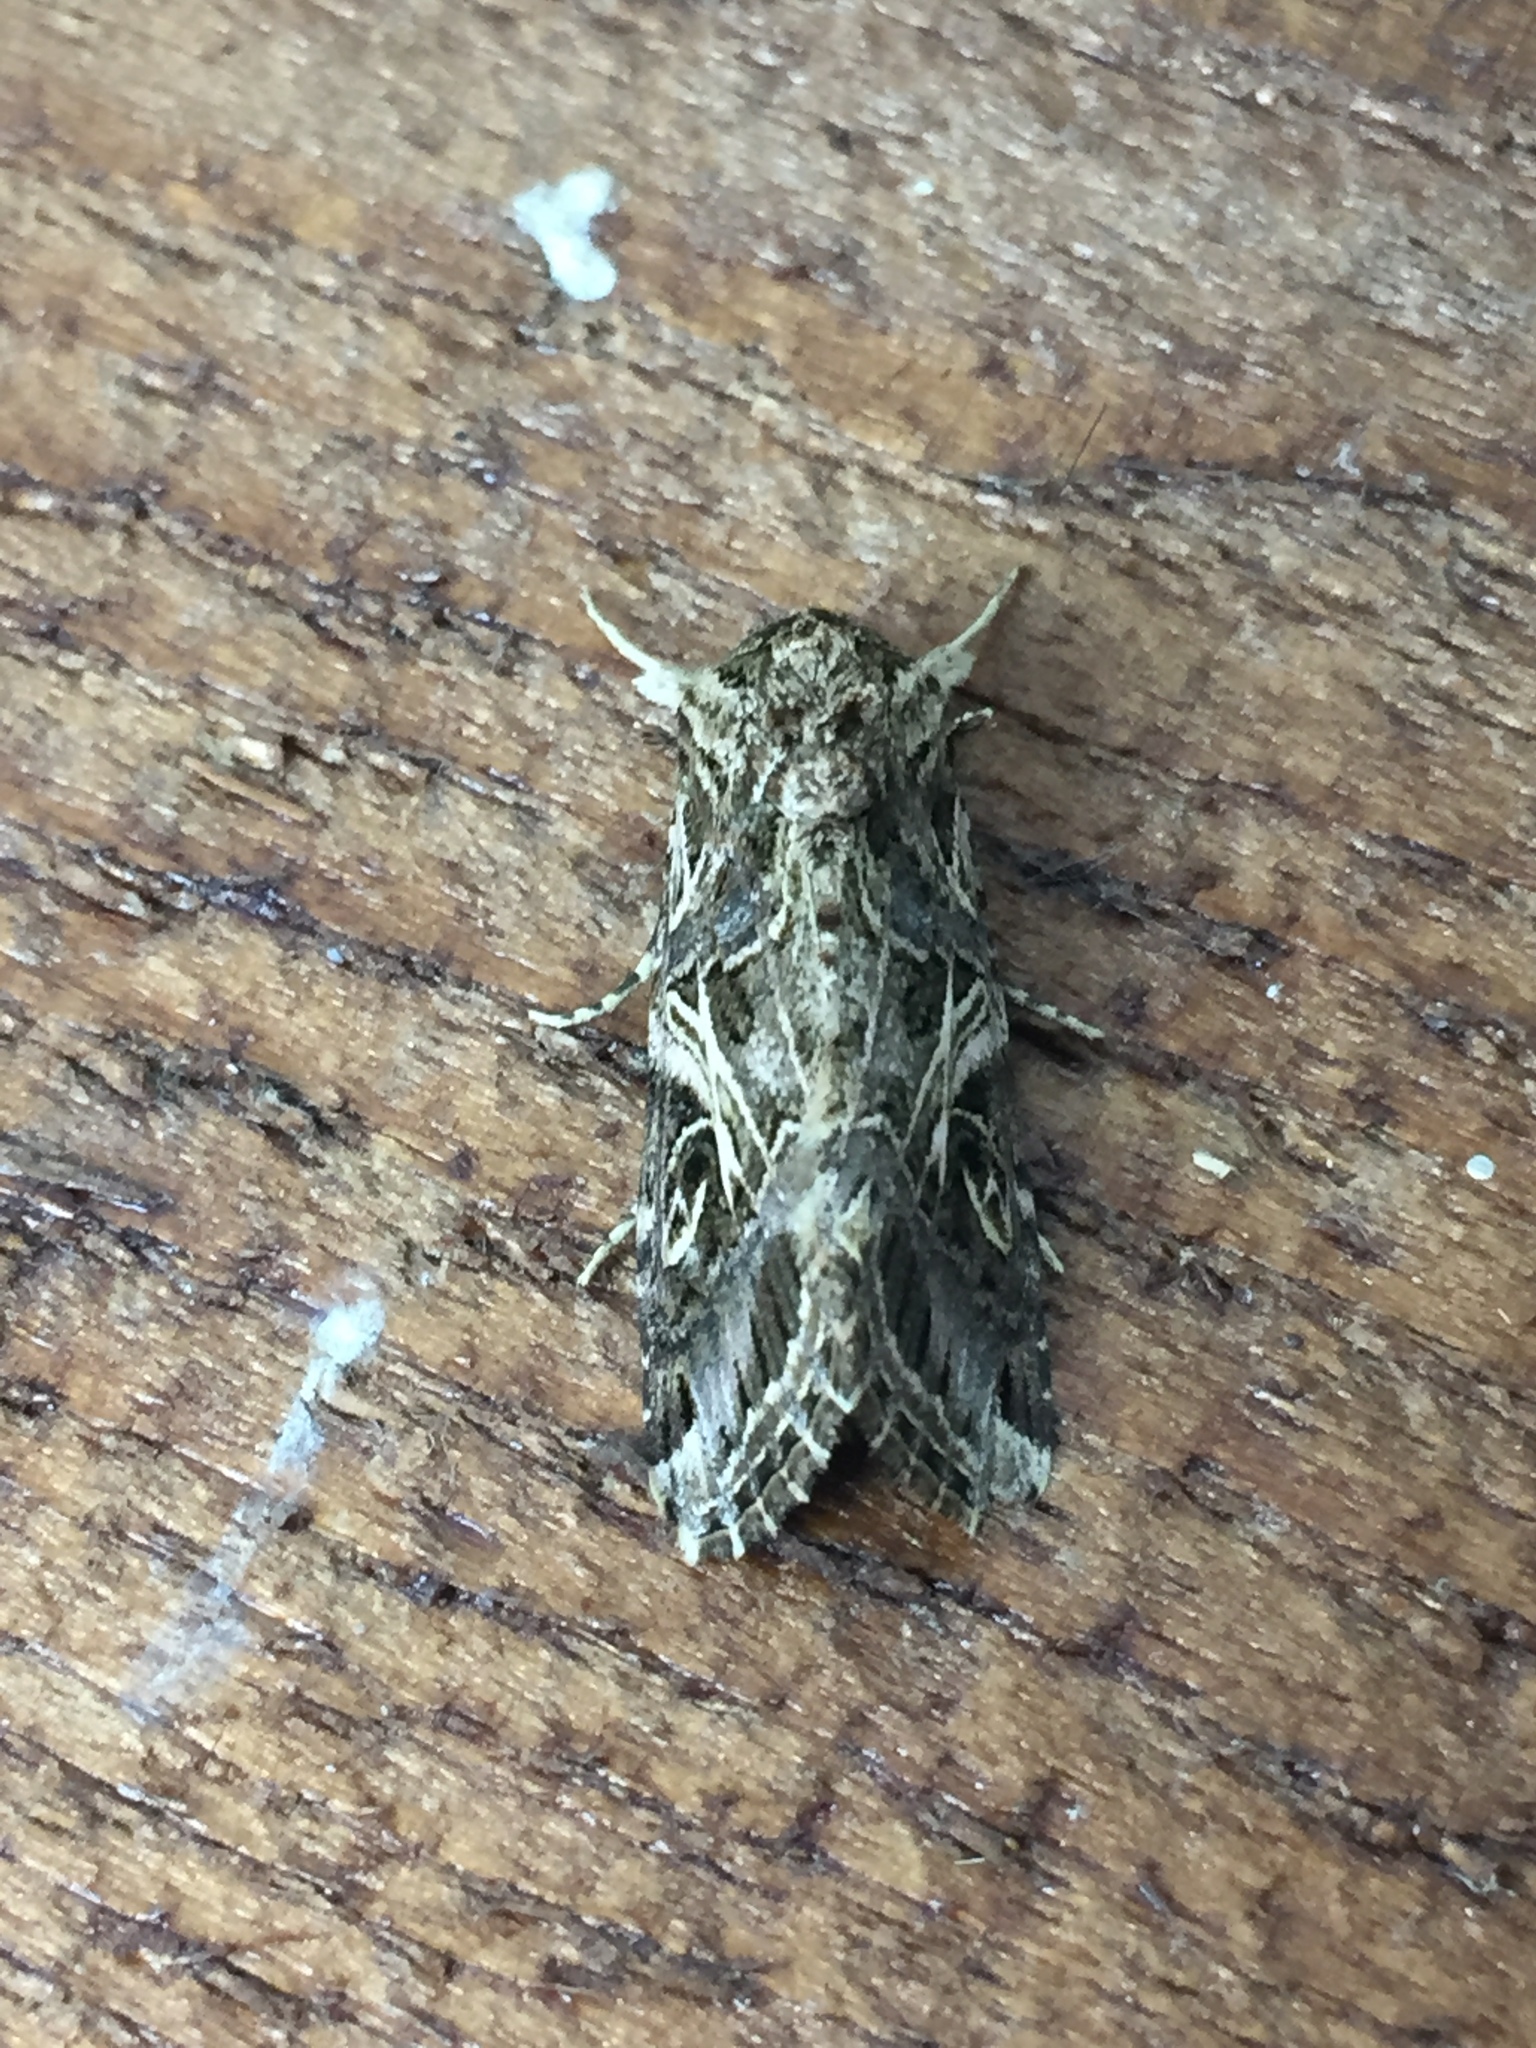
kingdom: Animalia
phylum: Arthropoda
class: Insecta
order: Lepidoptera
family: Noctuidae
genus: Spodoptera
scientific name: Spodoptera litura
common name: Asian cotton leafworm
